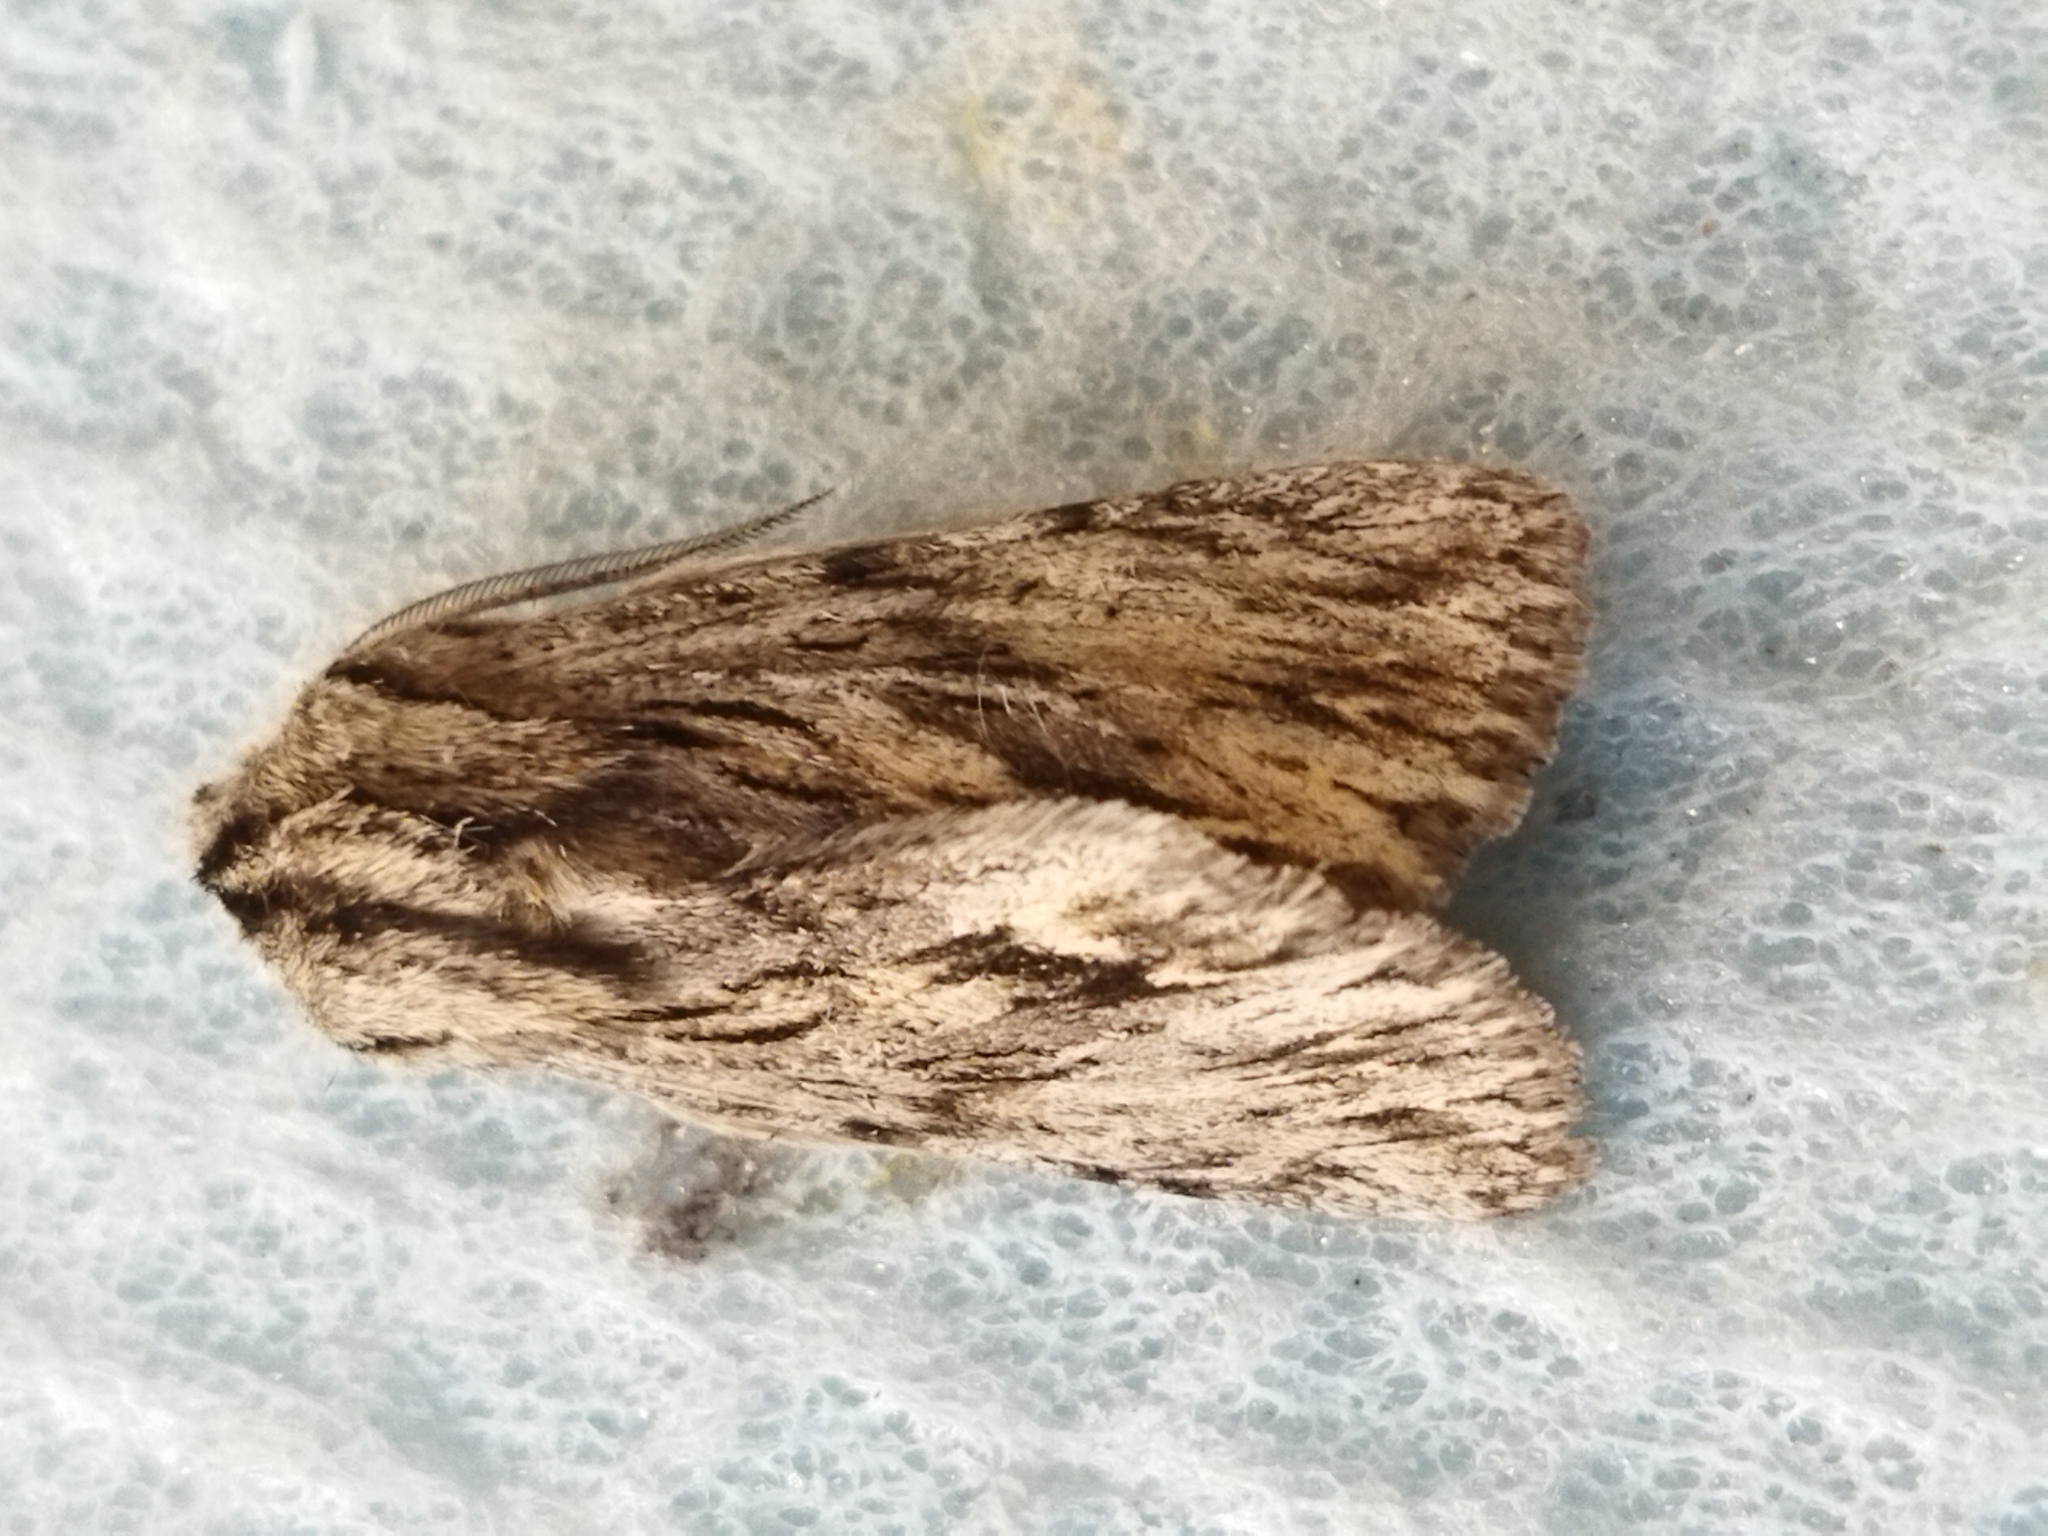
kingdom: Animalia
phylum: Arthropoda
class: Insecta
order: Lepidoptera
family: Noctuidae
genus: Asteroscopus
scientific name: Asteroscopus sphinx
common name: The sprawler
